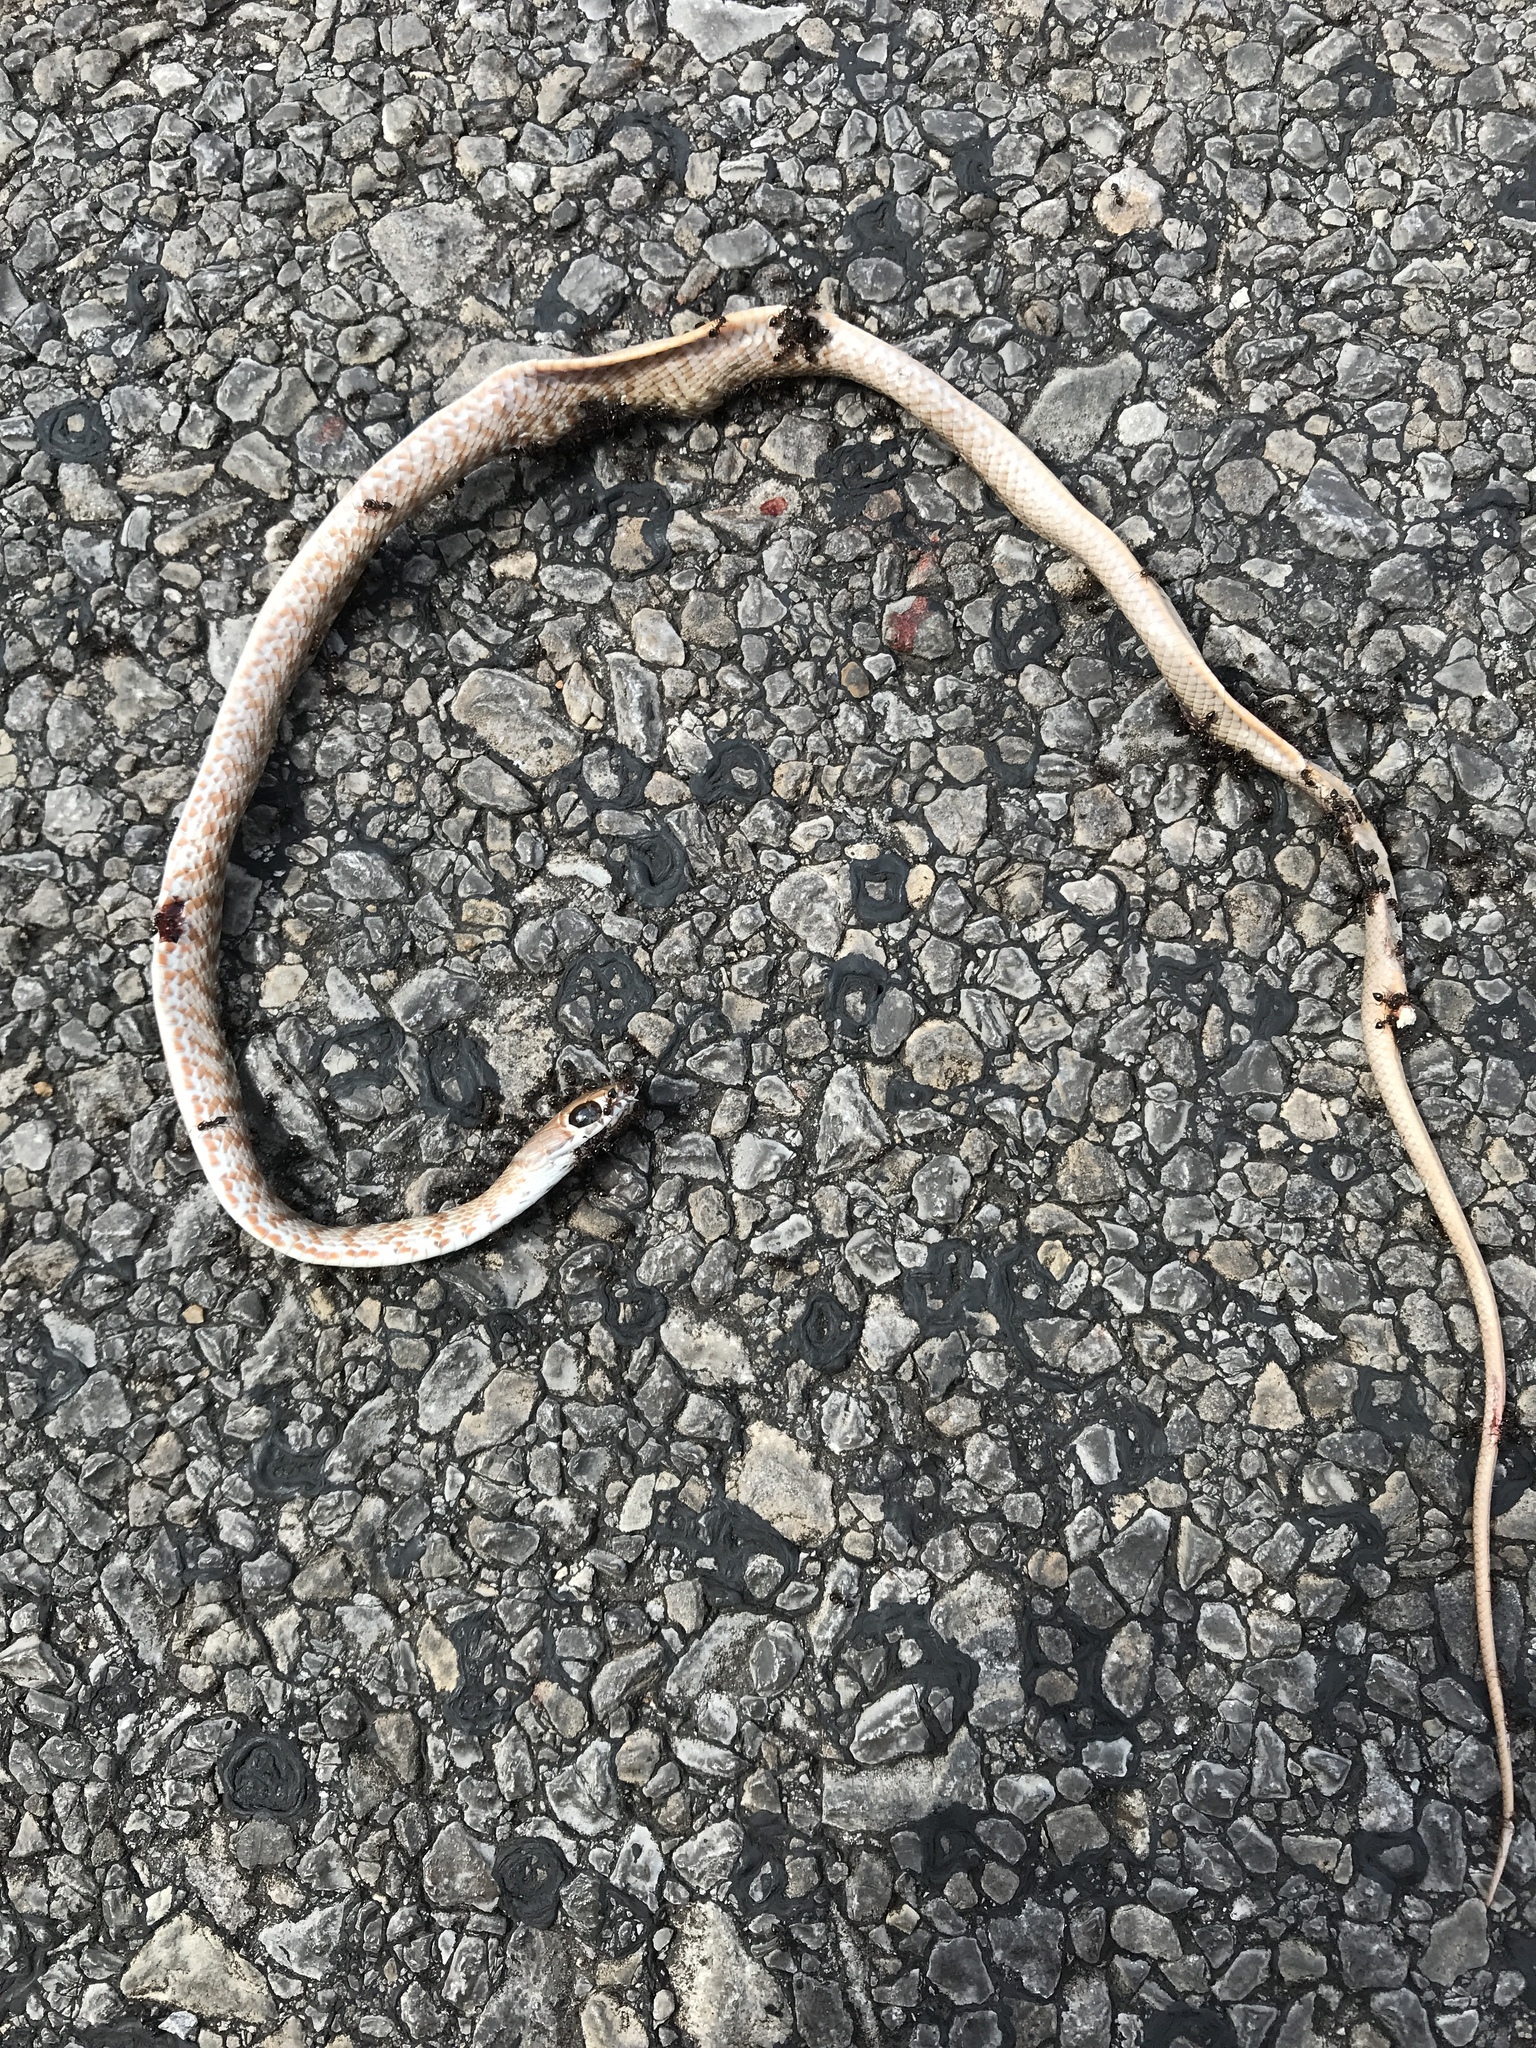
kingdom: Animalia
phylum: Chordata
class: Squamata
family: Colubridae
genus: Masticophis
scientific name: Masticophis flagellum
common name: Coachwhip
